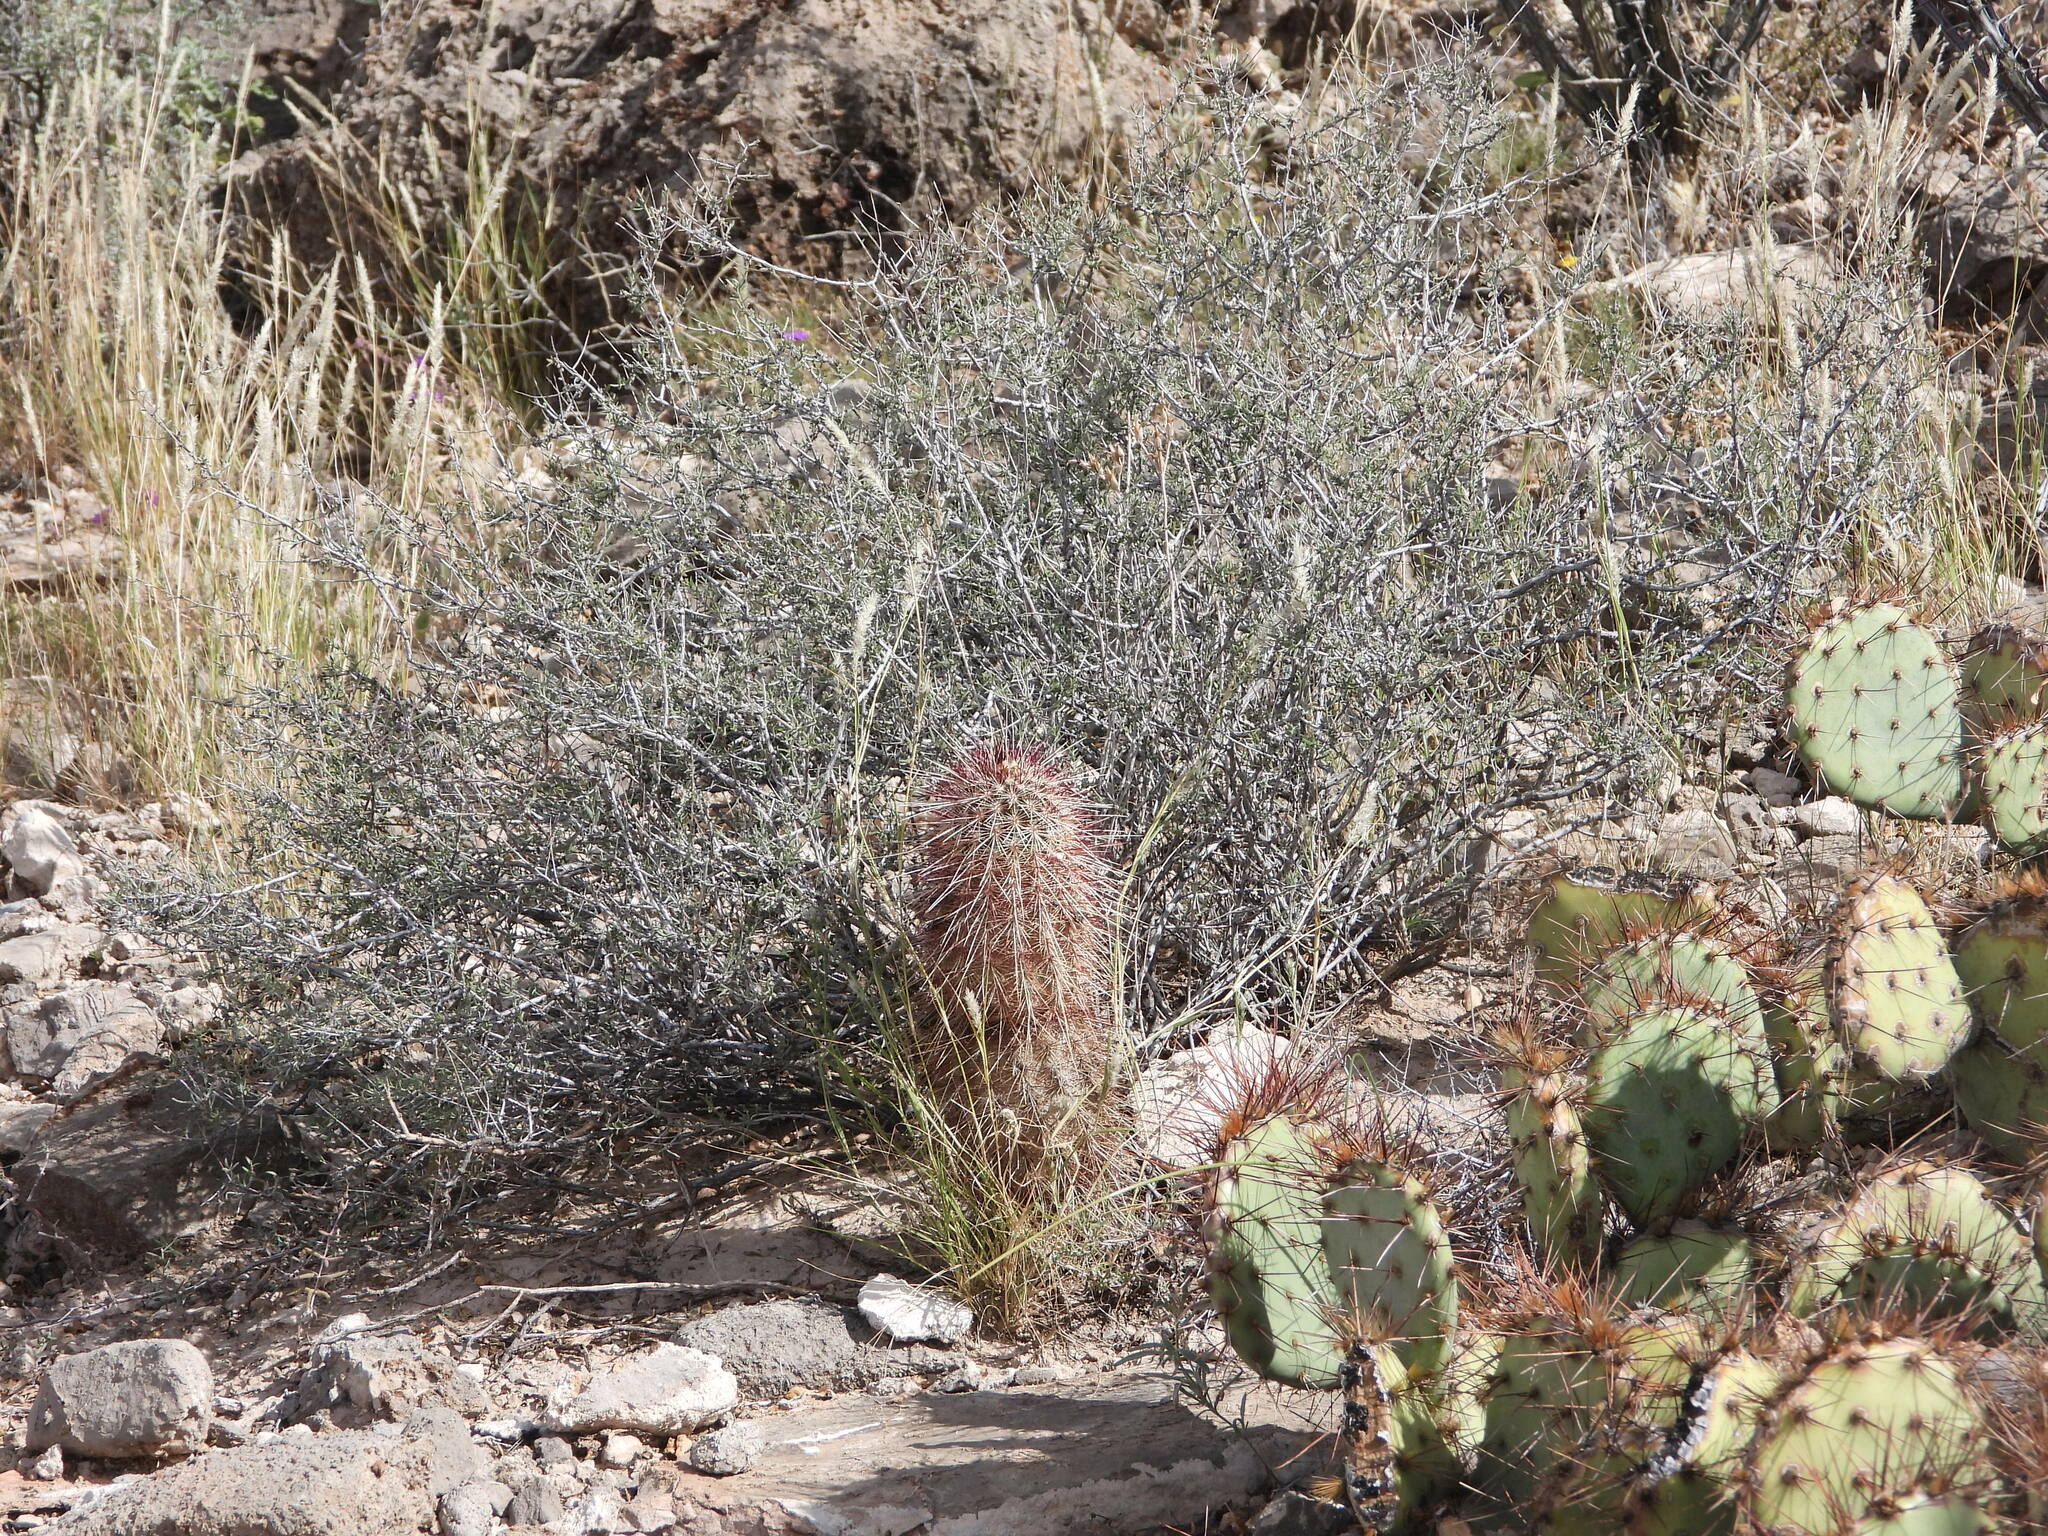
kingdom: Plantae
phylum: Tracheophyta
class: Magnoliopsida
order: Caryophyllales
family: Cactaceae
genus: Echinocereus
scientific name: Echinocereus viridiflorus
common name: Nylon hedgehog cactus
